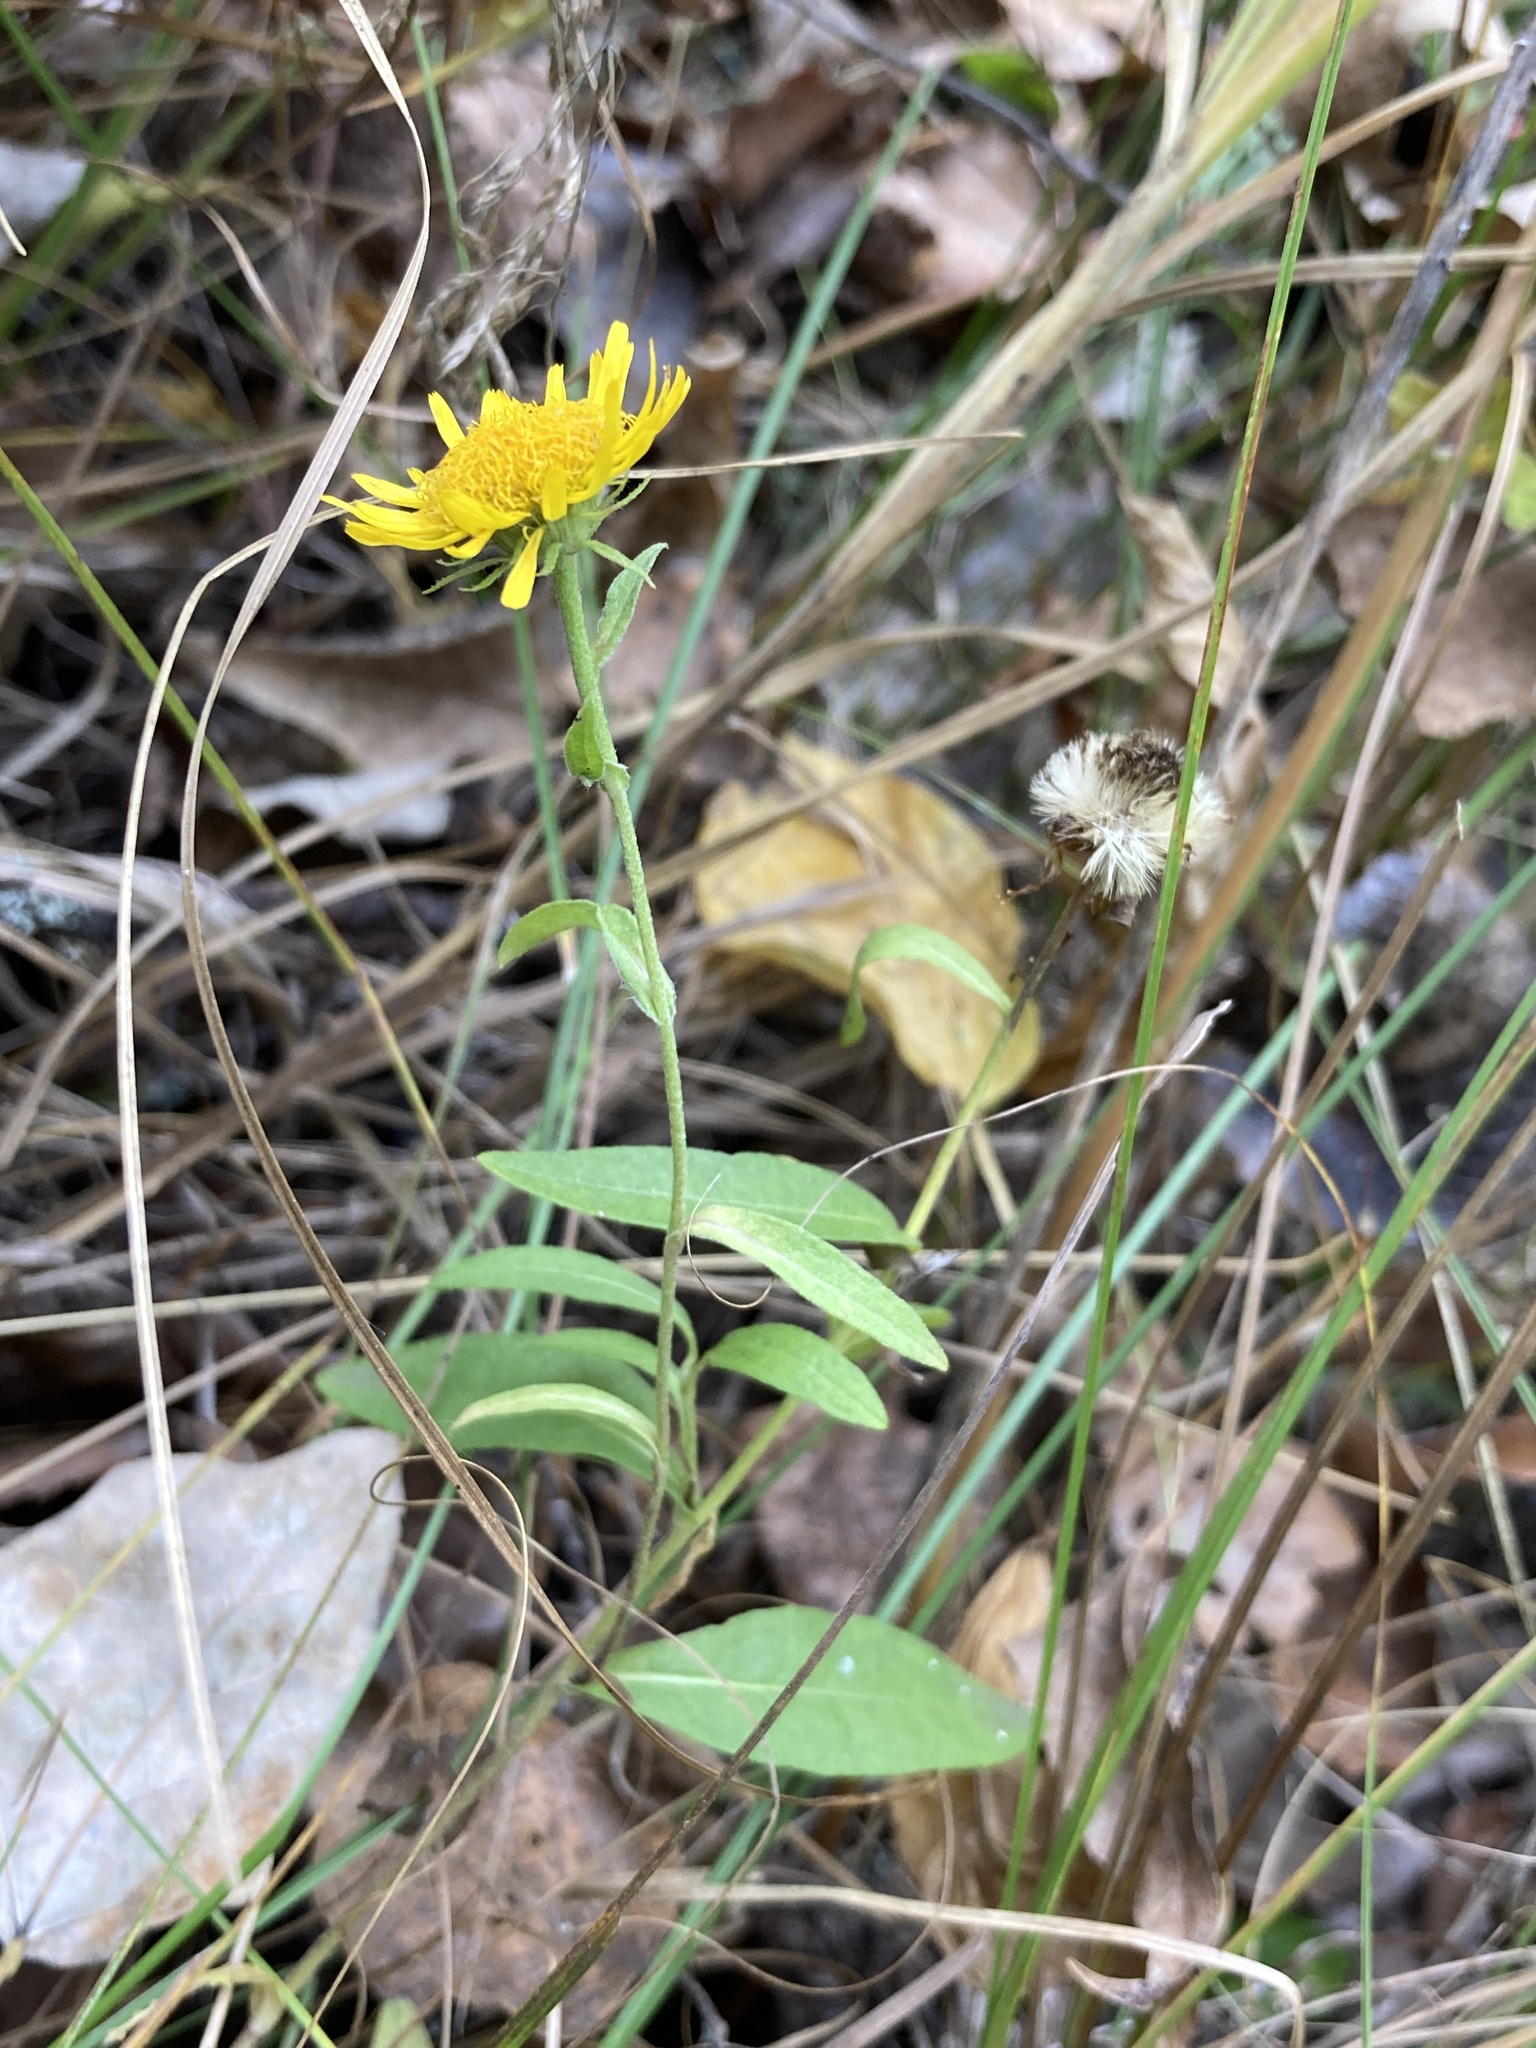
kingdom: Plantae
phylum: Tracheophyta
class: Magnoliopsida
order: Asterales
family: Asteraceae
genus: Pentanema
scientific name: Pentanema britannicum
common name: British elecampane
